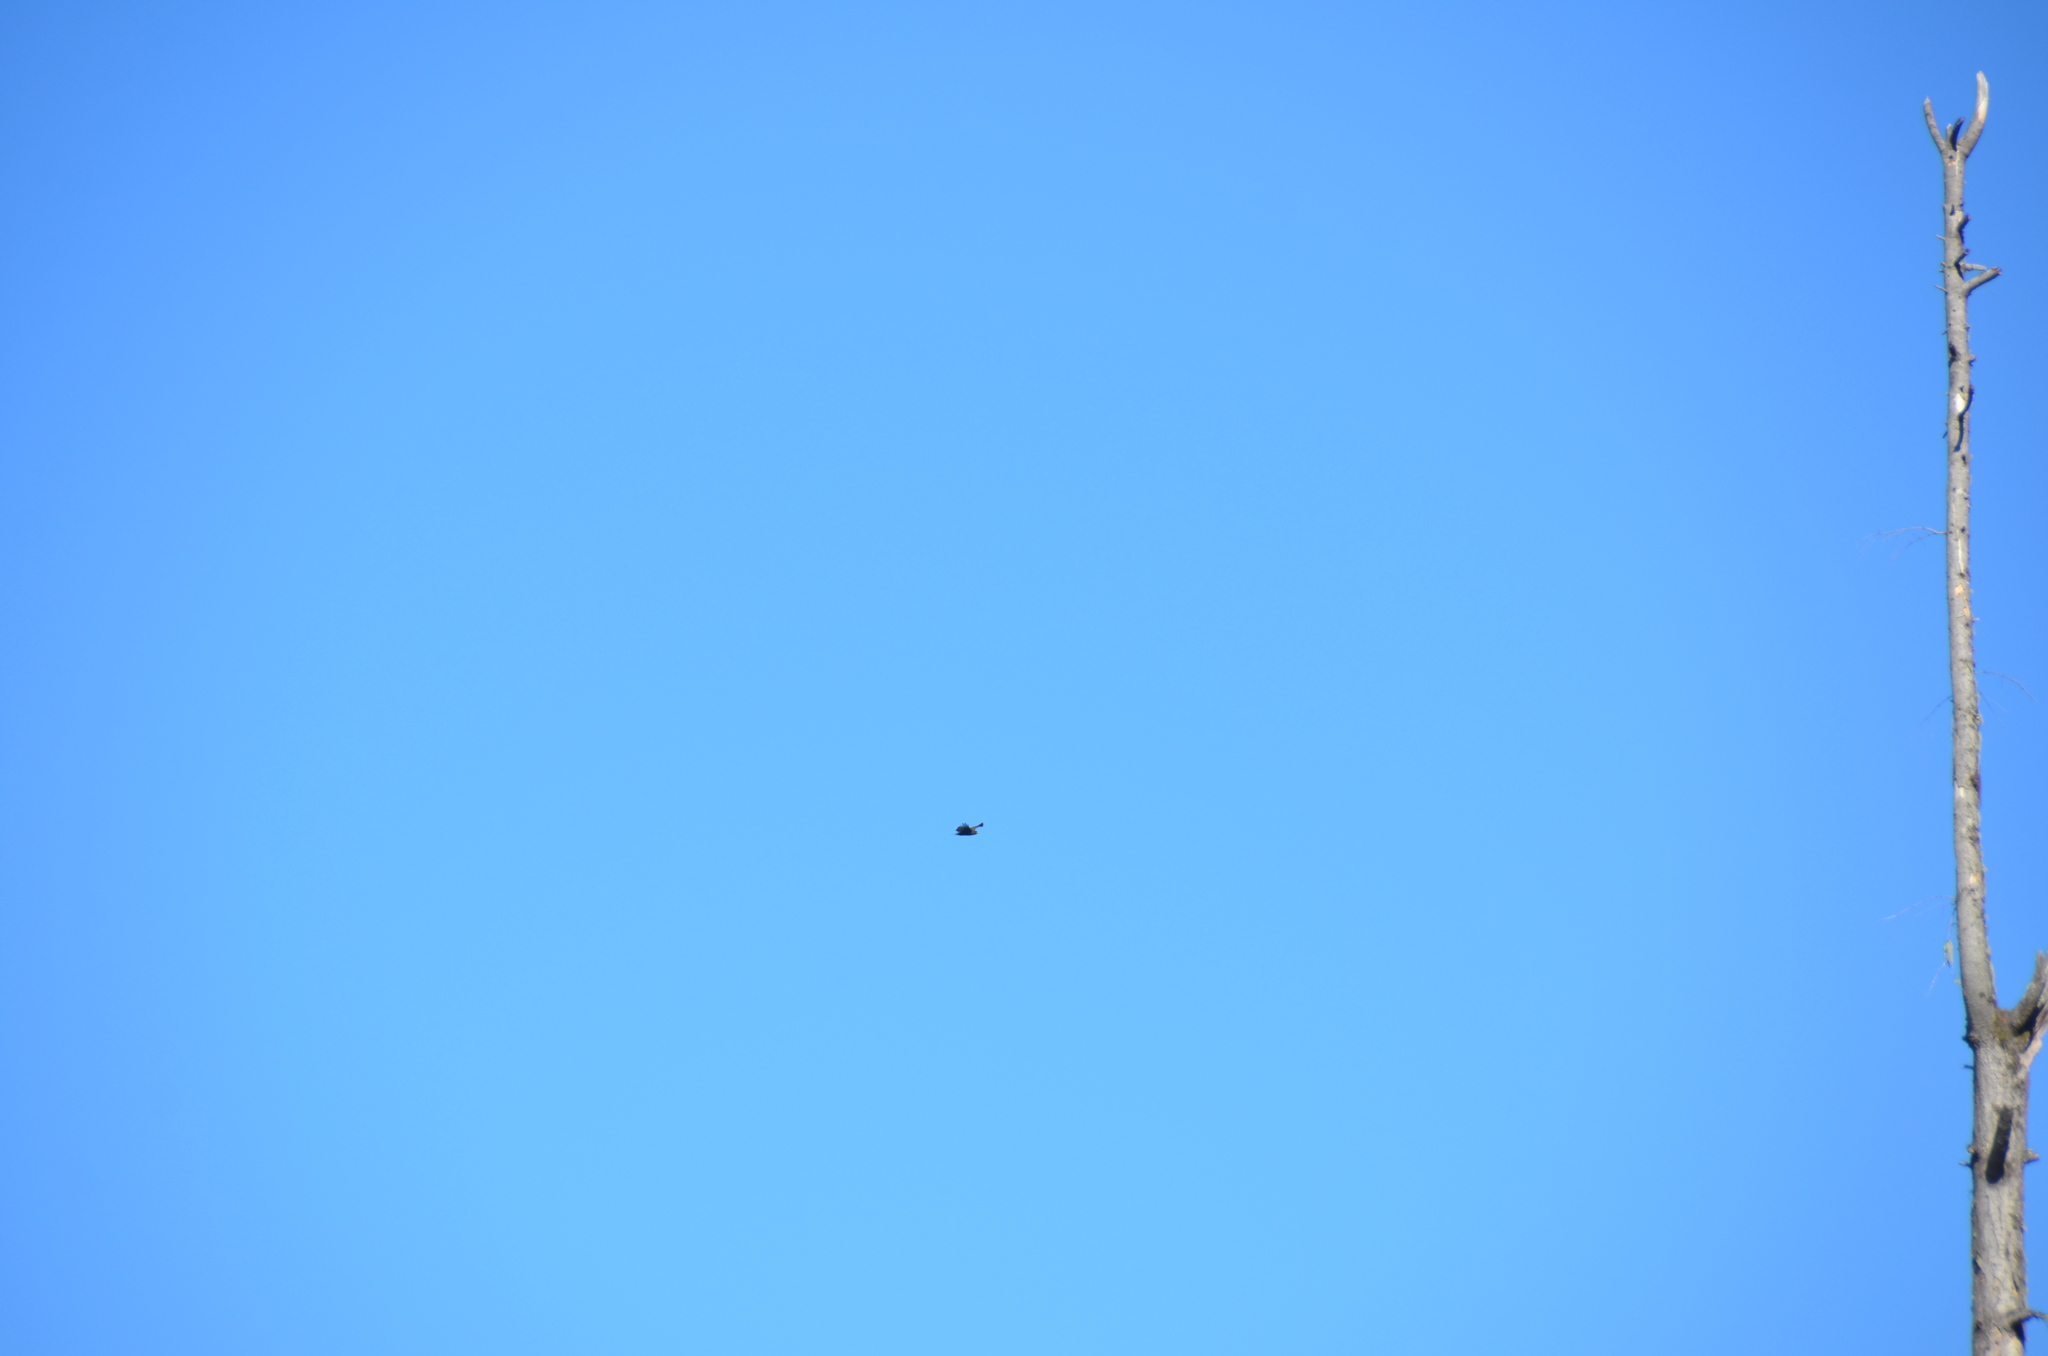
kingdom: Animalia
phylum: Chordata
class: Aves
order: Accipitriformes
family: Accipitridae
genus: Buteo
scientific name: Buteo jamaicensis
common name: Red-tailed hawk
